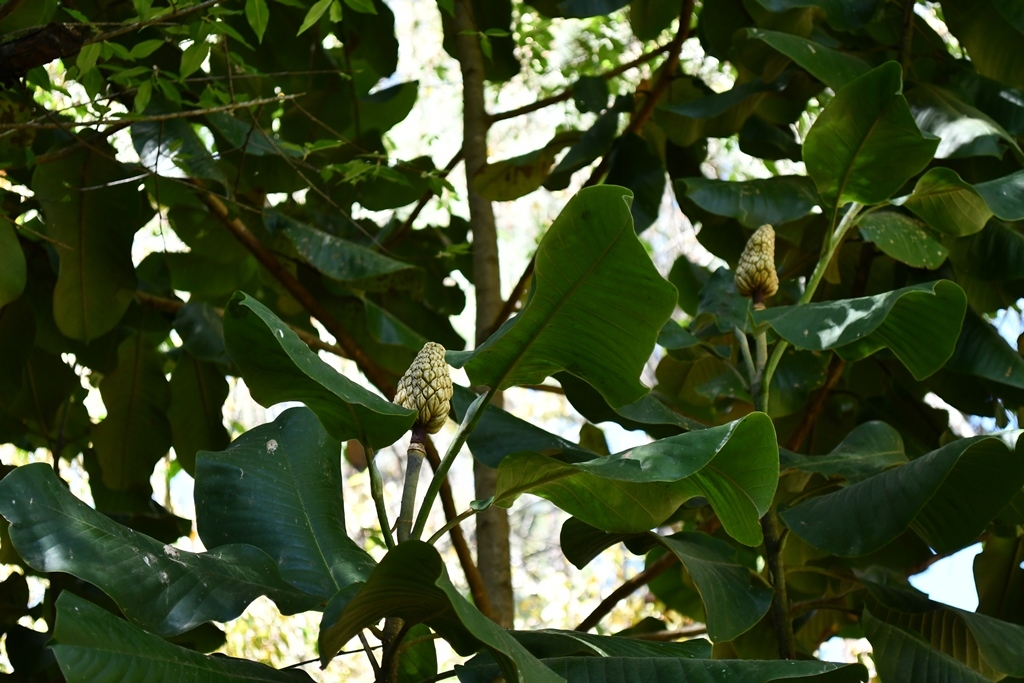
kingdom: Plantae
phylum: Tracheophyta
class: Magnoliopsida
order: Magnoliales
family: Magnoliaceae
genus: Magnolia
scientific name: Magnolia sharpii
